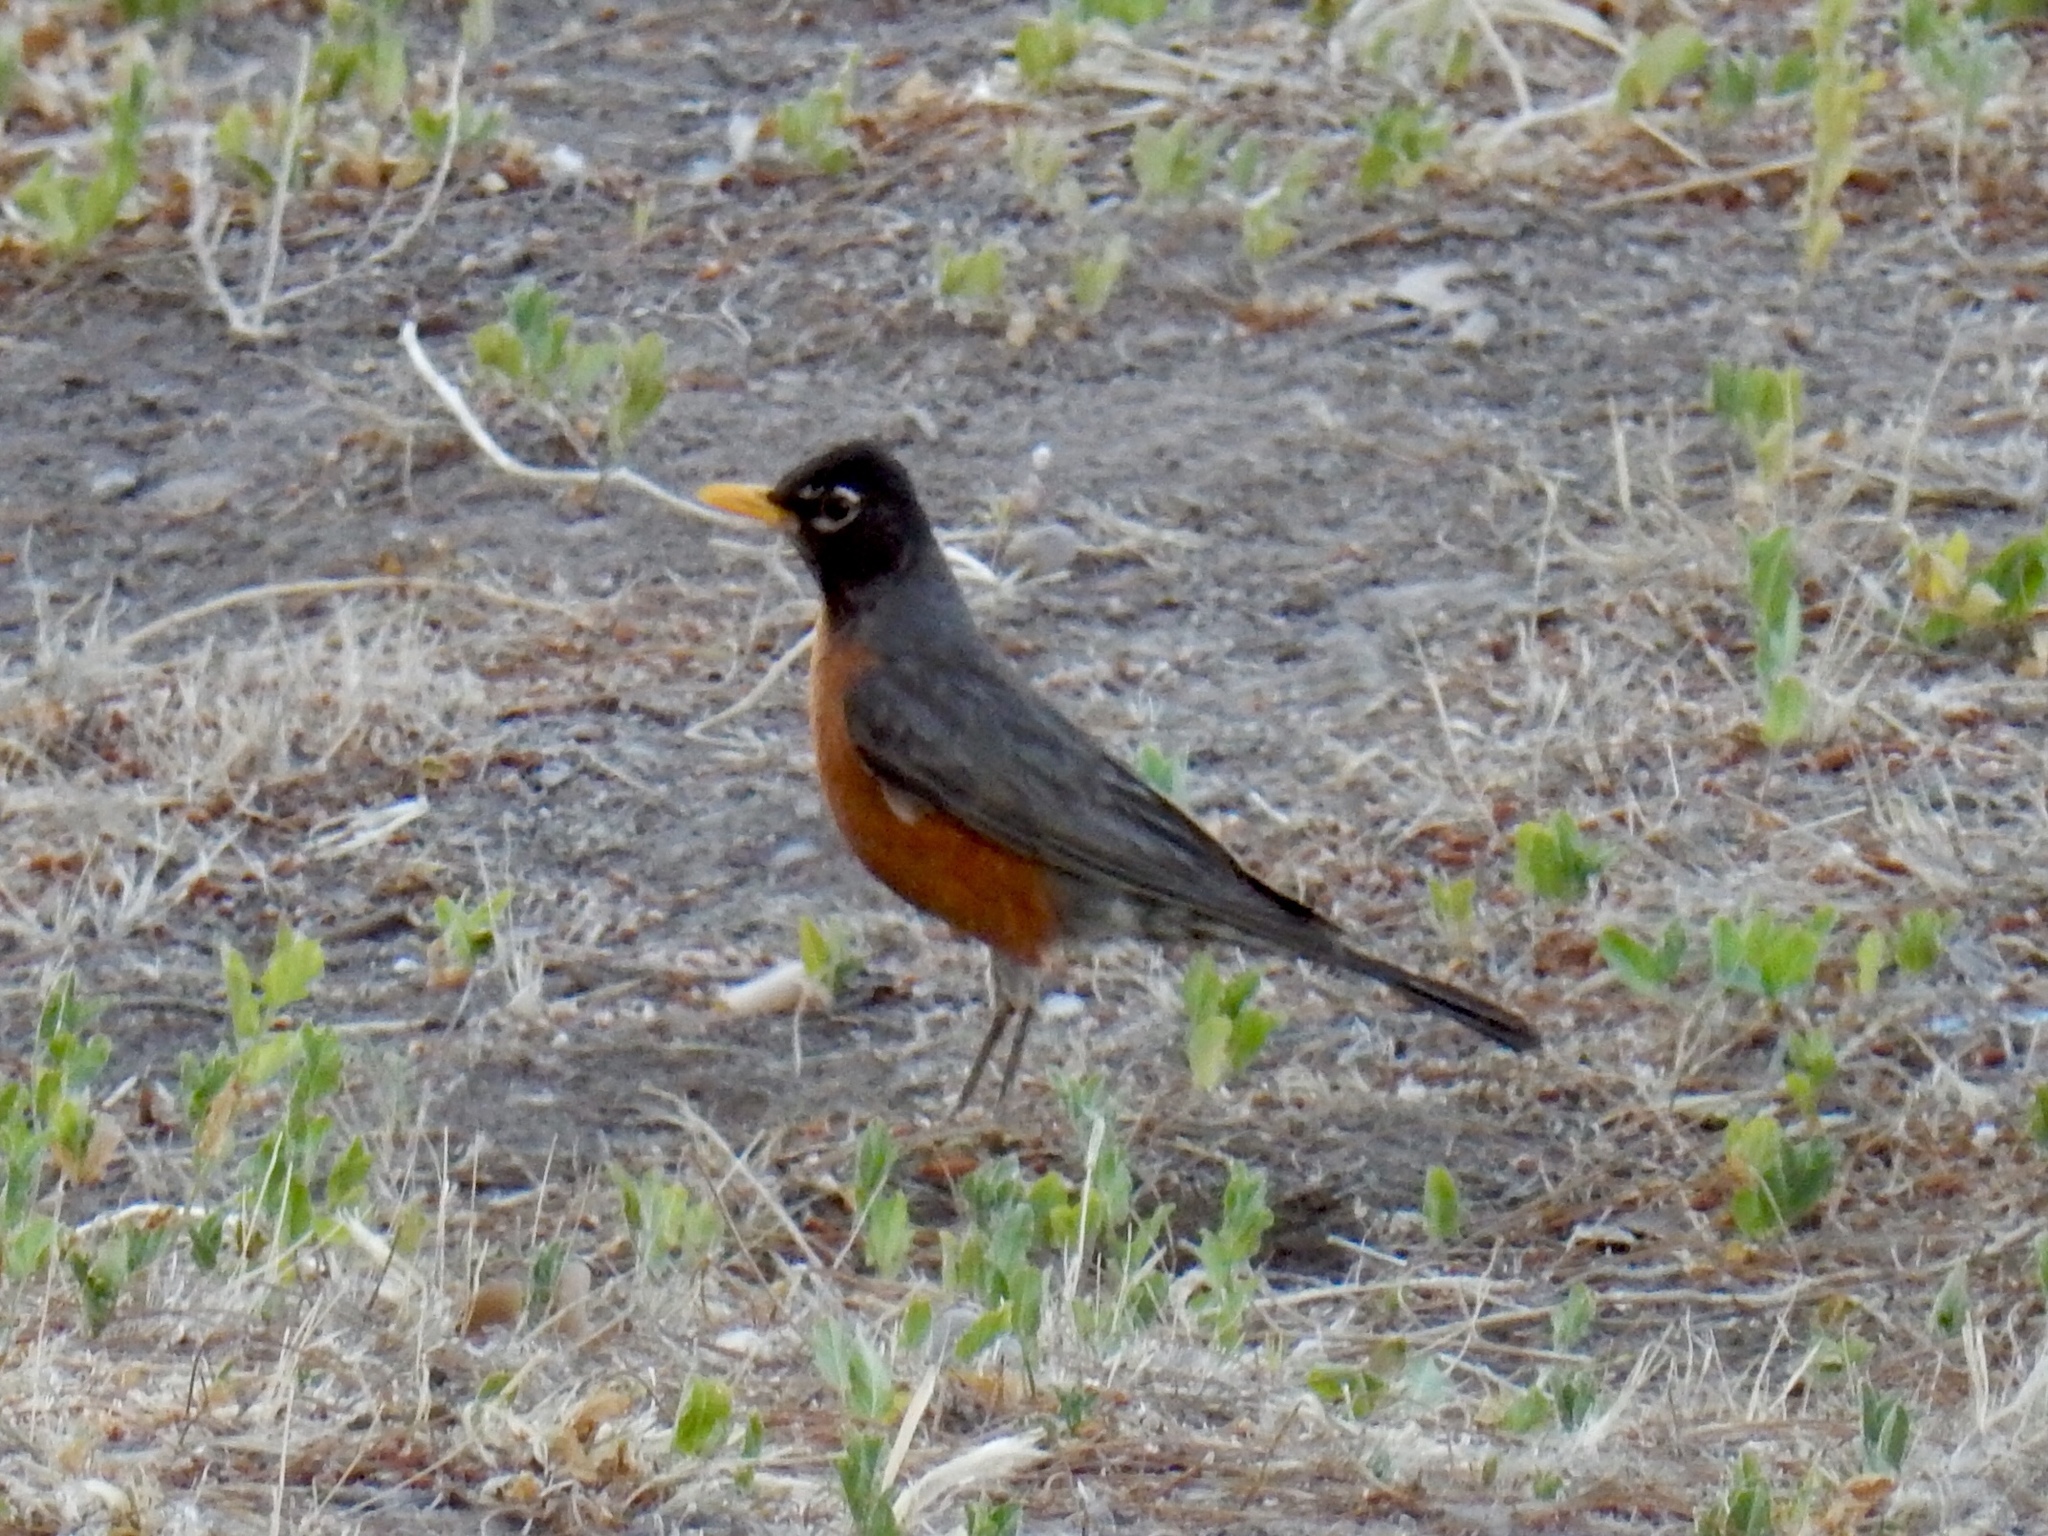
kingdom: Animalia
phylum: Chordata
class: Aves
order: Passeriformes
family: Turdidae
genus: Turdus
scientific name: Turdus migratorius
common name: American robin
